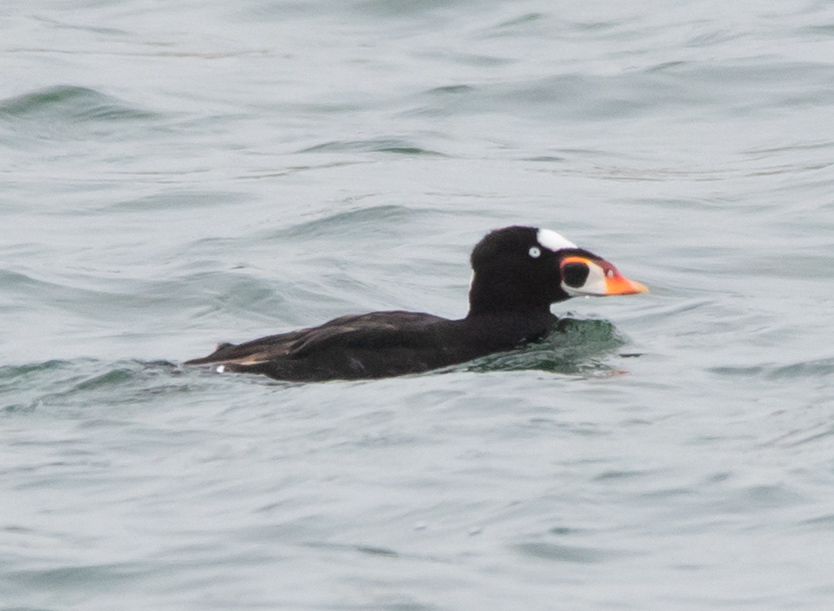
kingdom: Animalia
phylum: Chordata
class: Aves
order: Anseriformes
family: Anatidae
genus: Melanitta
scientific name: Melanitta perspicillata
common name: Surf scoter
